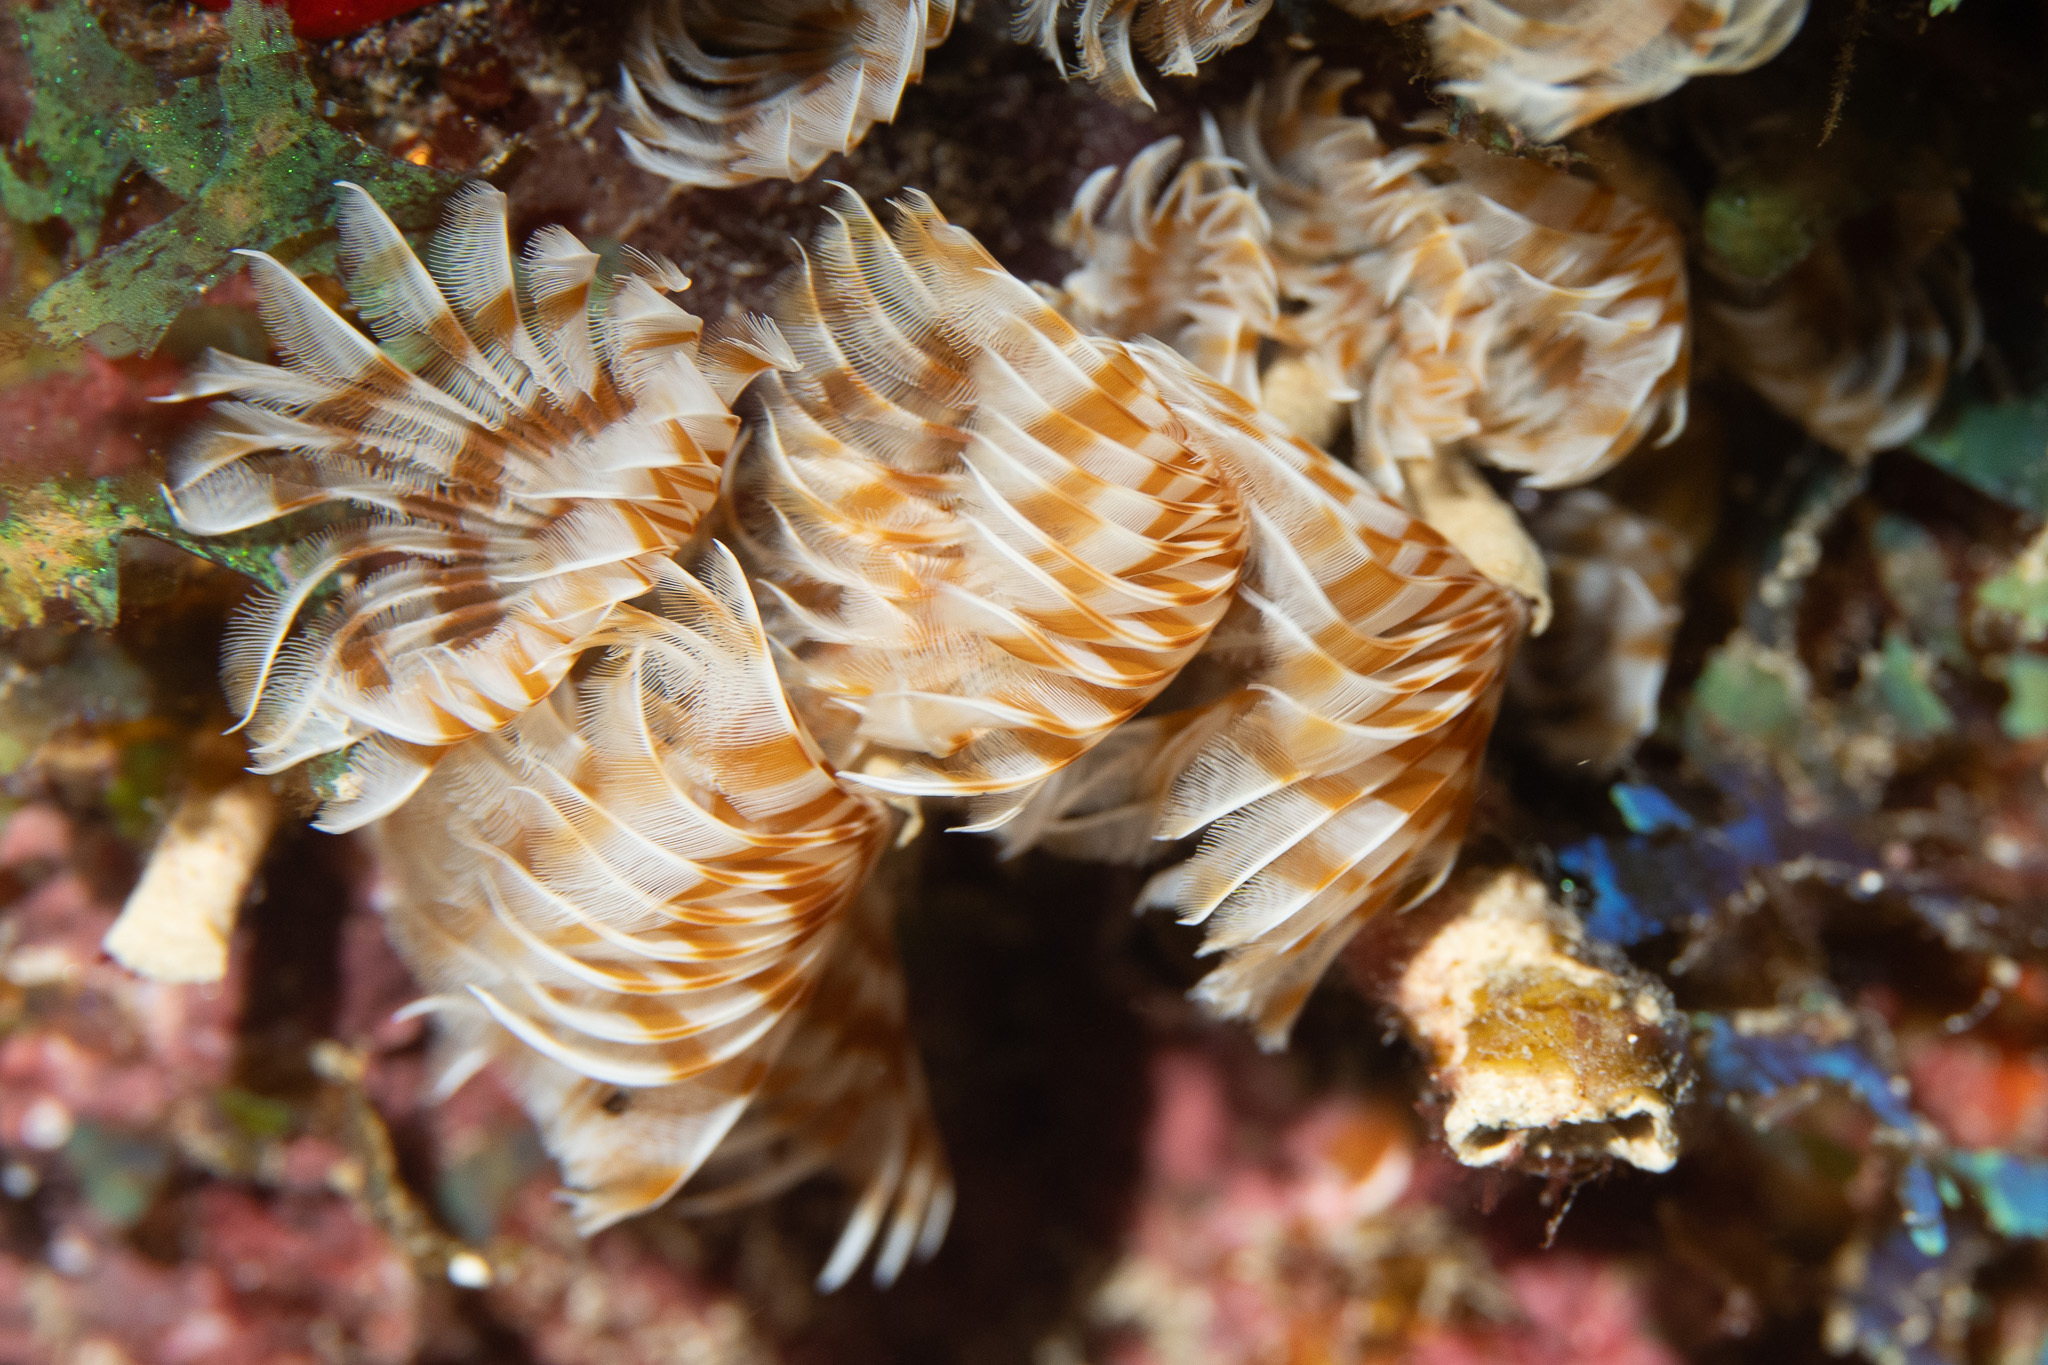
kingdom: Animalia
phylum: Annelida
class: Polychaeta
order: Sabellida
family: Sabellidae
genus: Bispira
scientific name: Bispira brunnea
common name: Social feather duster
